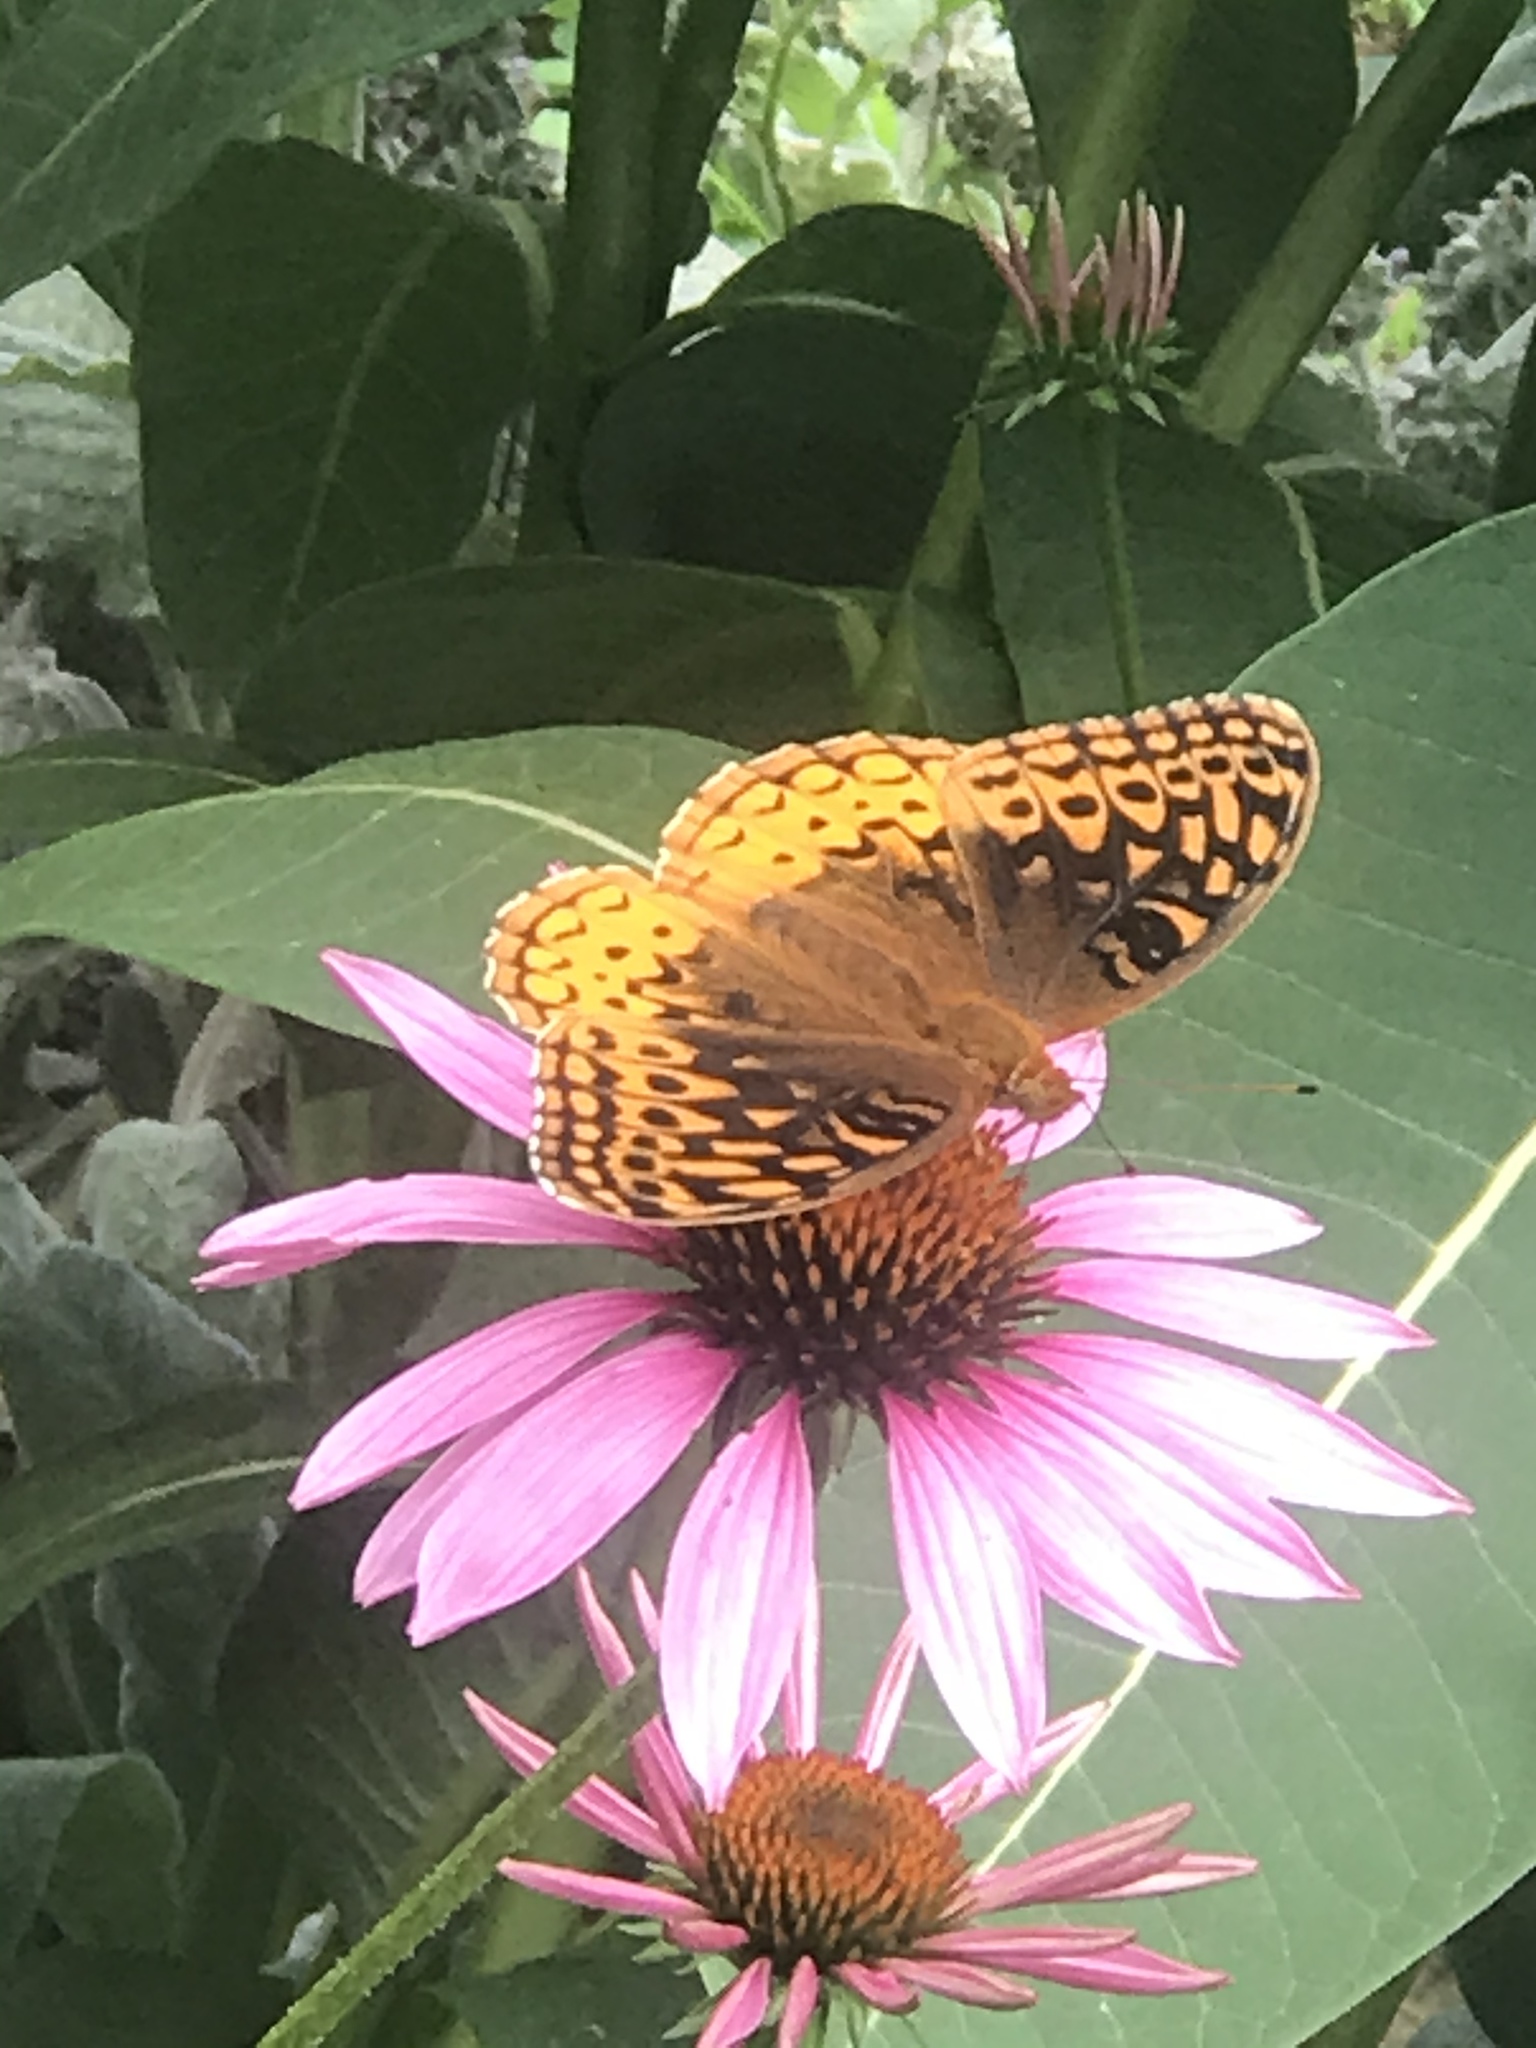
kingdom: Animalia
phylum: Arthropoda
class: Insecta
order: Lepidoptera
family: Nymphalidae
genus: Speyeria
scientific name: Speyeria cybele
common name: Great spangled fritillary
